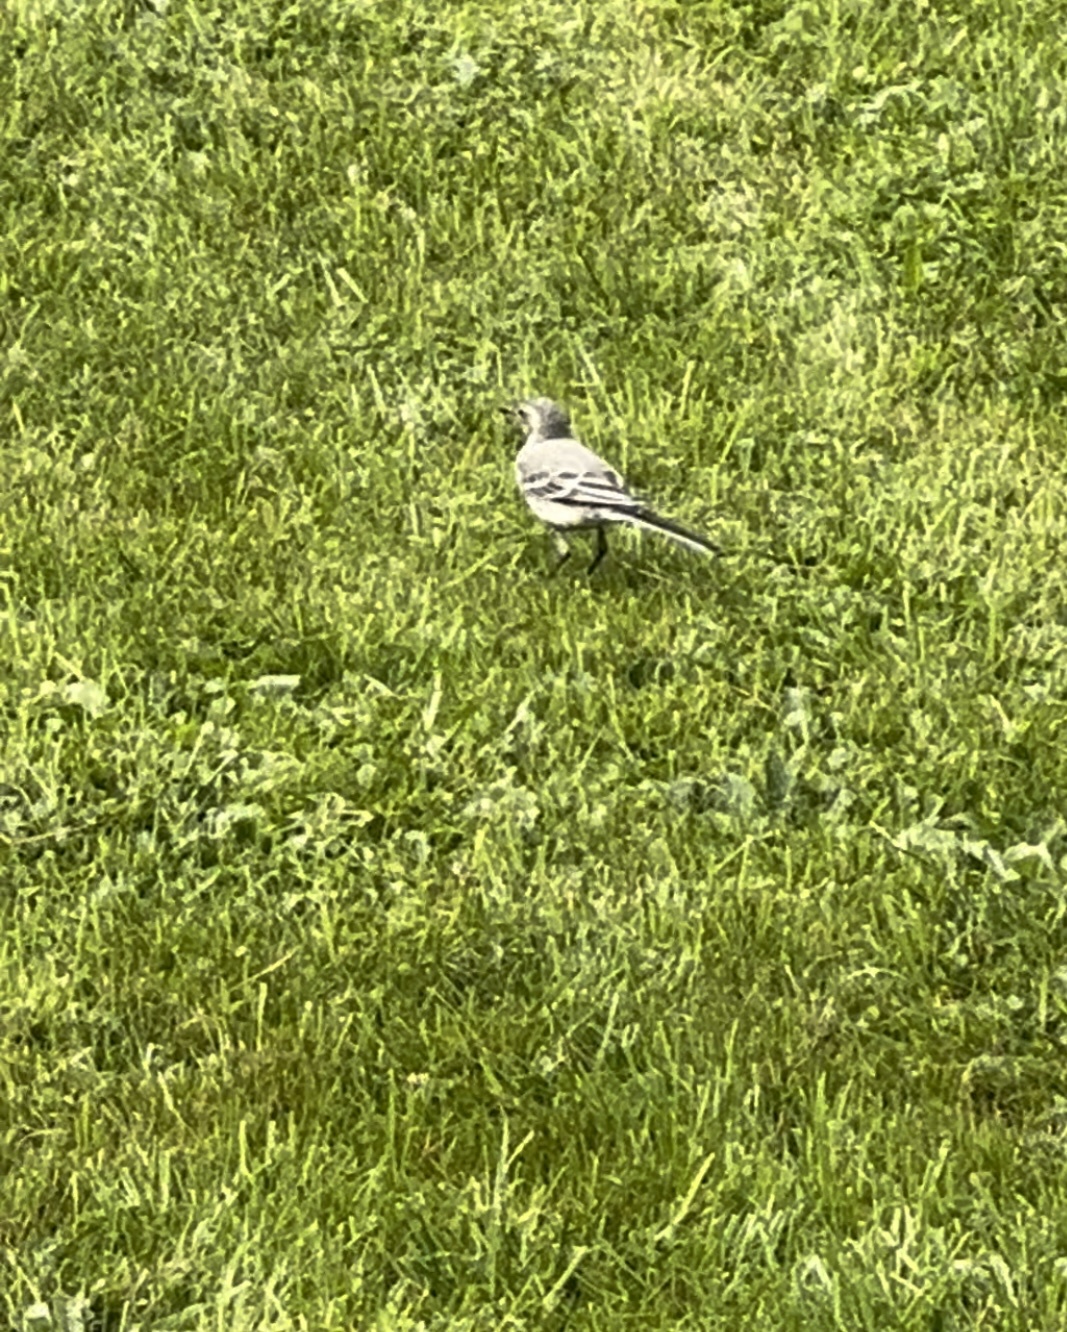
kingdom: Animalia
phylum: Chordata
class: Aves
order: Passeriformes
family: Motacillidae
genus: Motacilla
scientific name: Motacilla alba
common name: White wagtail
